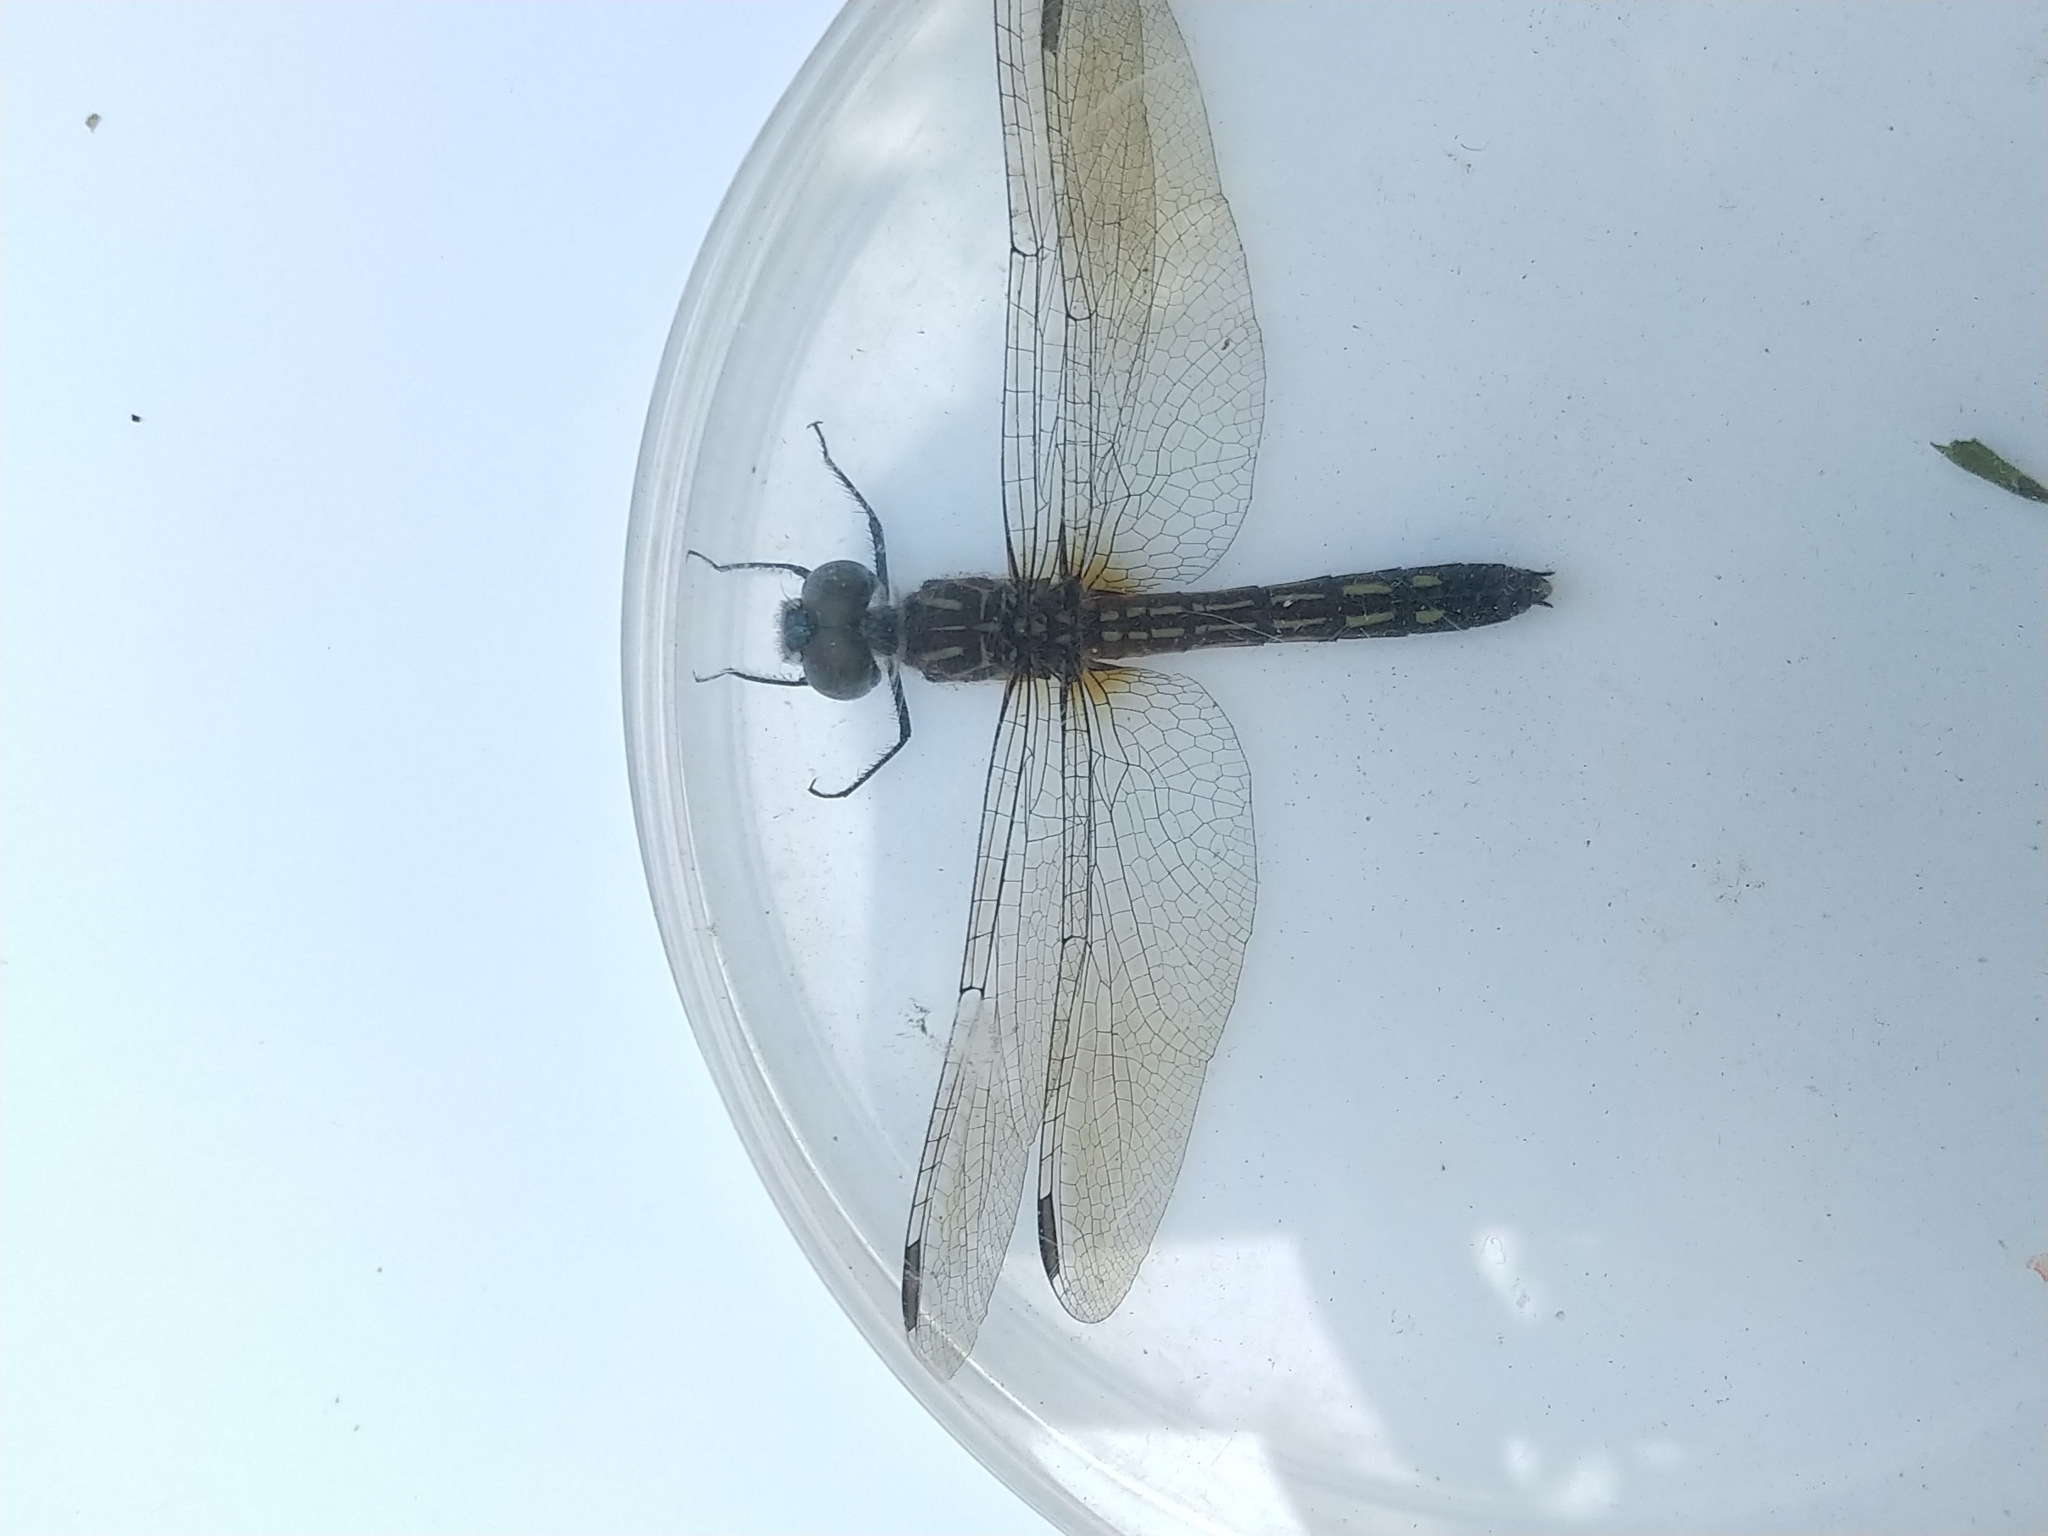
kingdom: Animalia
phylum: Arthropoda
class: Insecta
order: Odonata
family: Libellulidae
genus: Pachydiplax
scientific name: Pachydiplax longipennis
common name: Blue dasher
